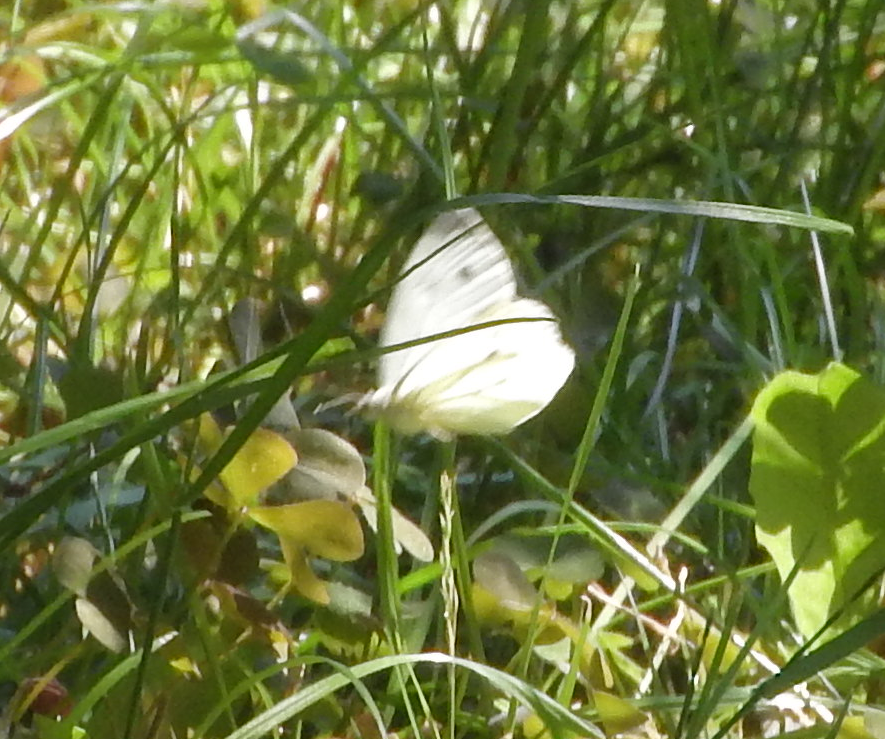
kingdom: Animalia
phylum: Arthropoda
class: Insecta
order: Lepidoptera
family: Pieridae
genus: Pieris
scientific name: Pieris napi
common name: Green-veined white
